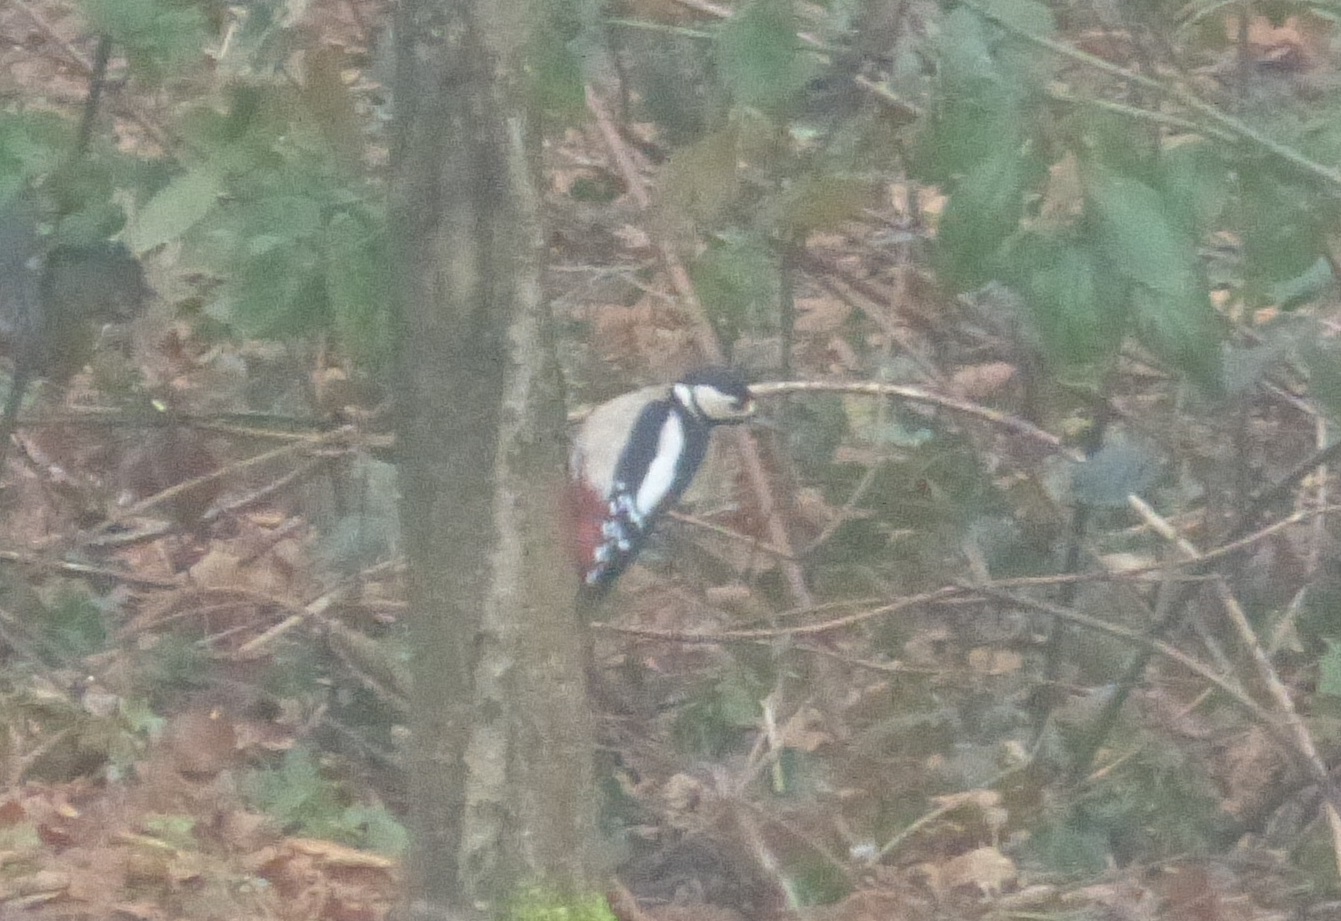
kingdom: Animalia
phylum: Chordata
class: Aves
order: Piciformes
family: Picidae
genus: Dendrocopos
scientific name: Dendrocopos major
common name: Great spotted woodpecker
